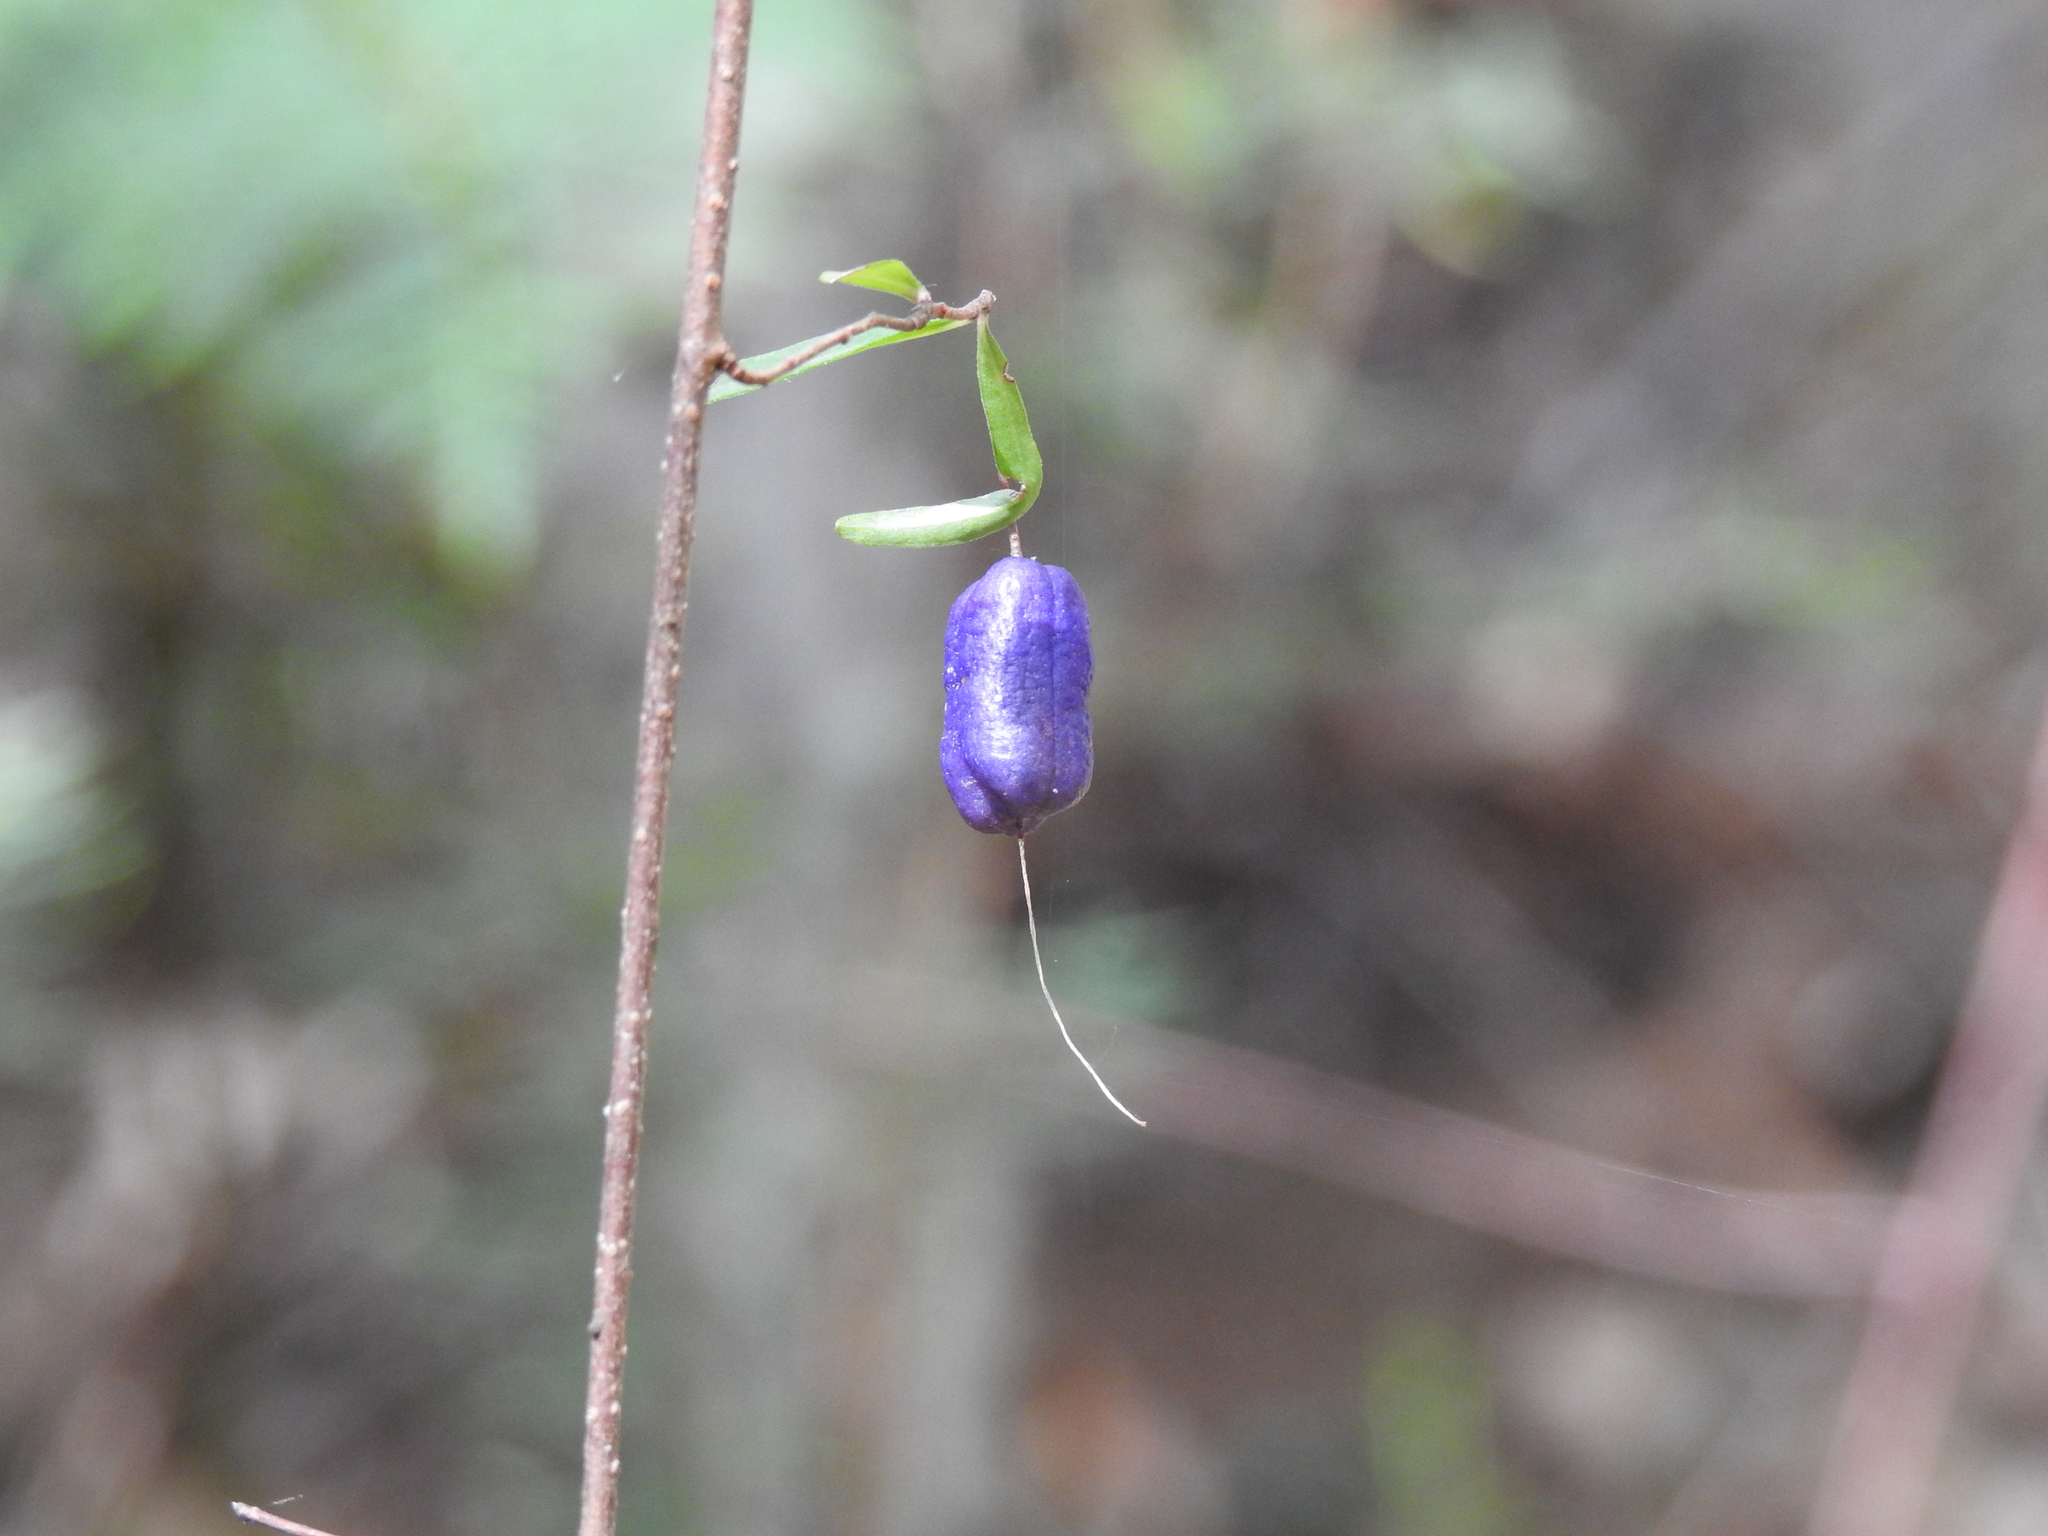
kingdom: Plantae
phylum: Tracheophyta
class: Magnoliopsida
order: Apiales
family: Pittosporaceae
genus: Billardiera
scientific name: Billardiera macrantha
